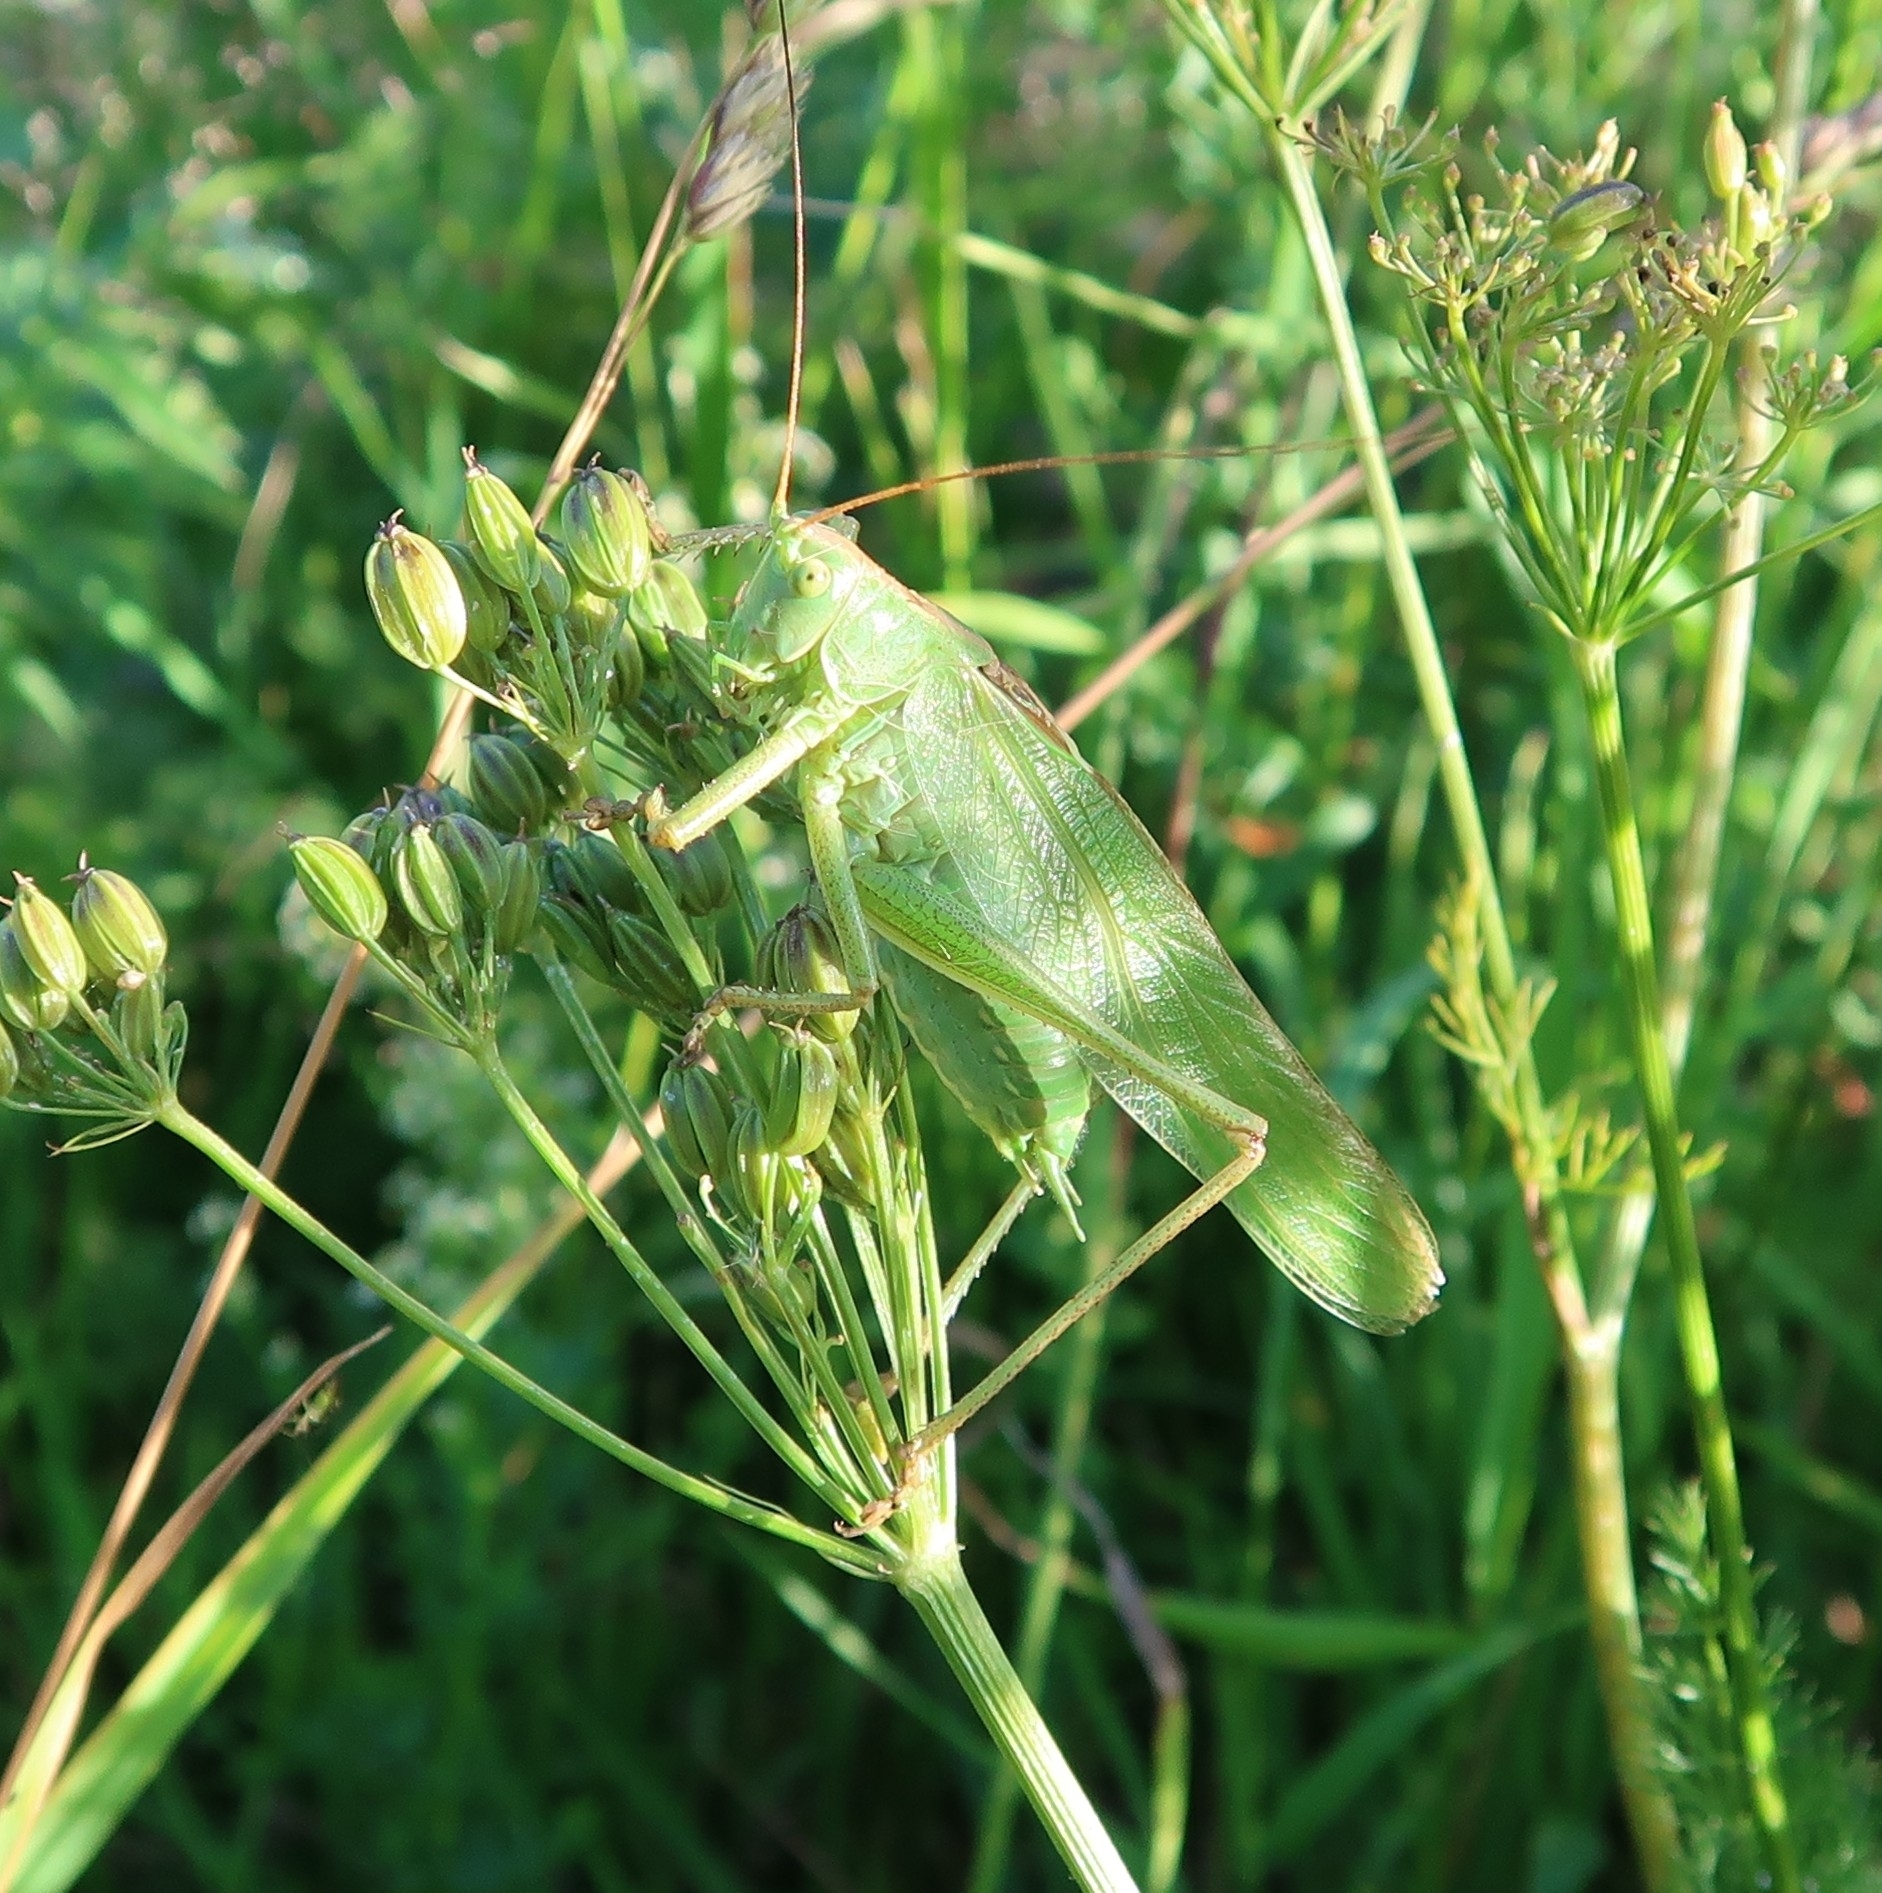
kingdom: Animalia
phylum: Arthropoda
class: Insecta
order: Orthoptera
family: Tettigoniidae
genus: Tettigonia
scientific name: Tettigonia viridissima
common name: Great green bush-cricket
